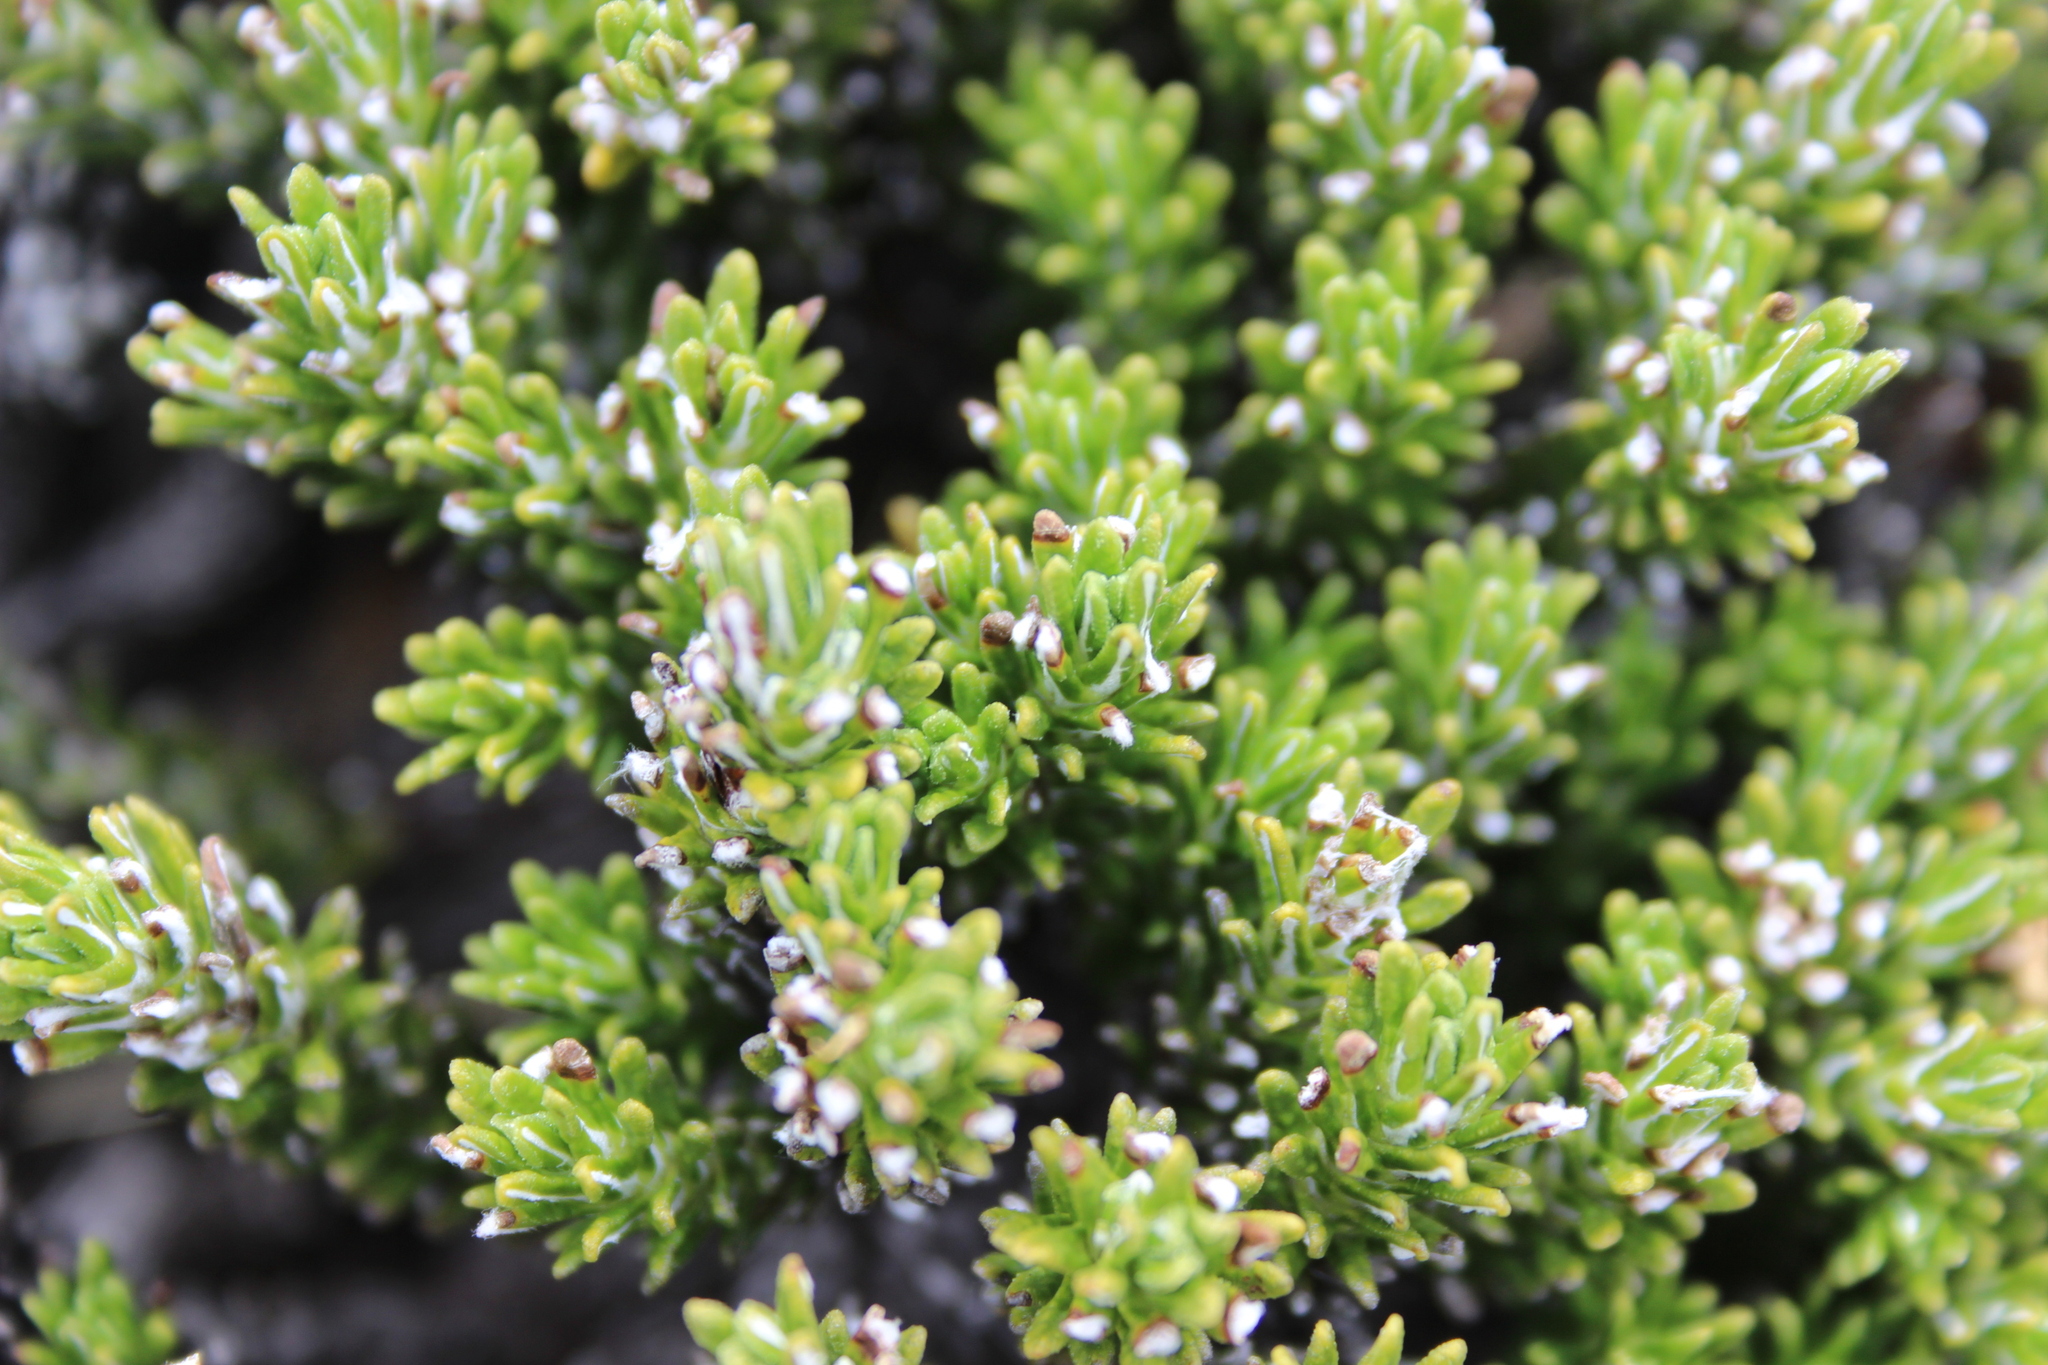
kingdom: Plantae
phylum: Tracheophyta
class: Magnoliopsida
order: Asterales
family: Asteraceae
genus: Celmisia
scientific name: Celmisia ramulosa
